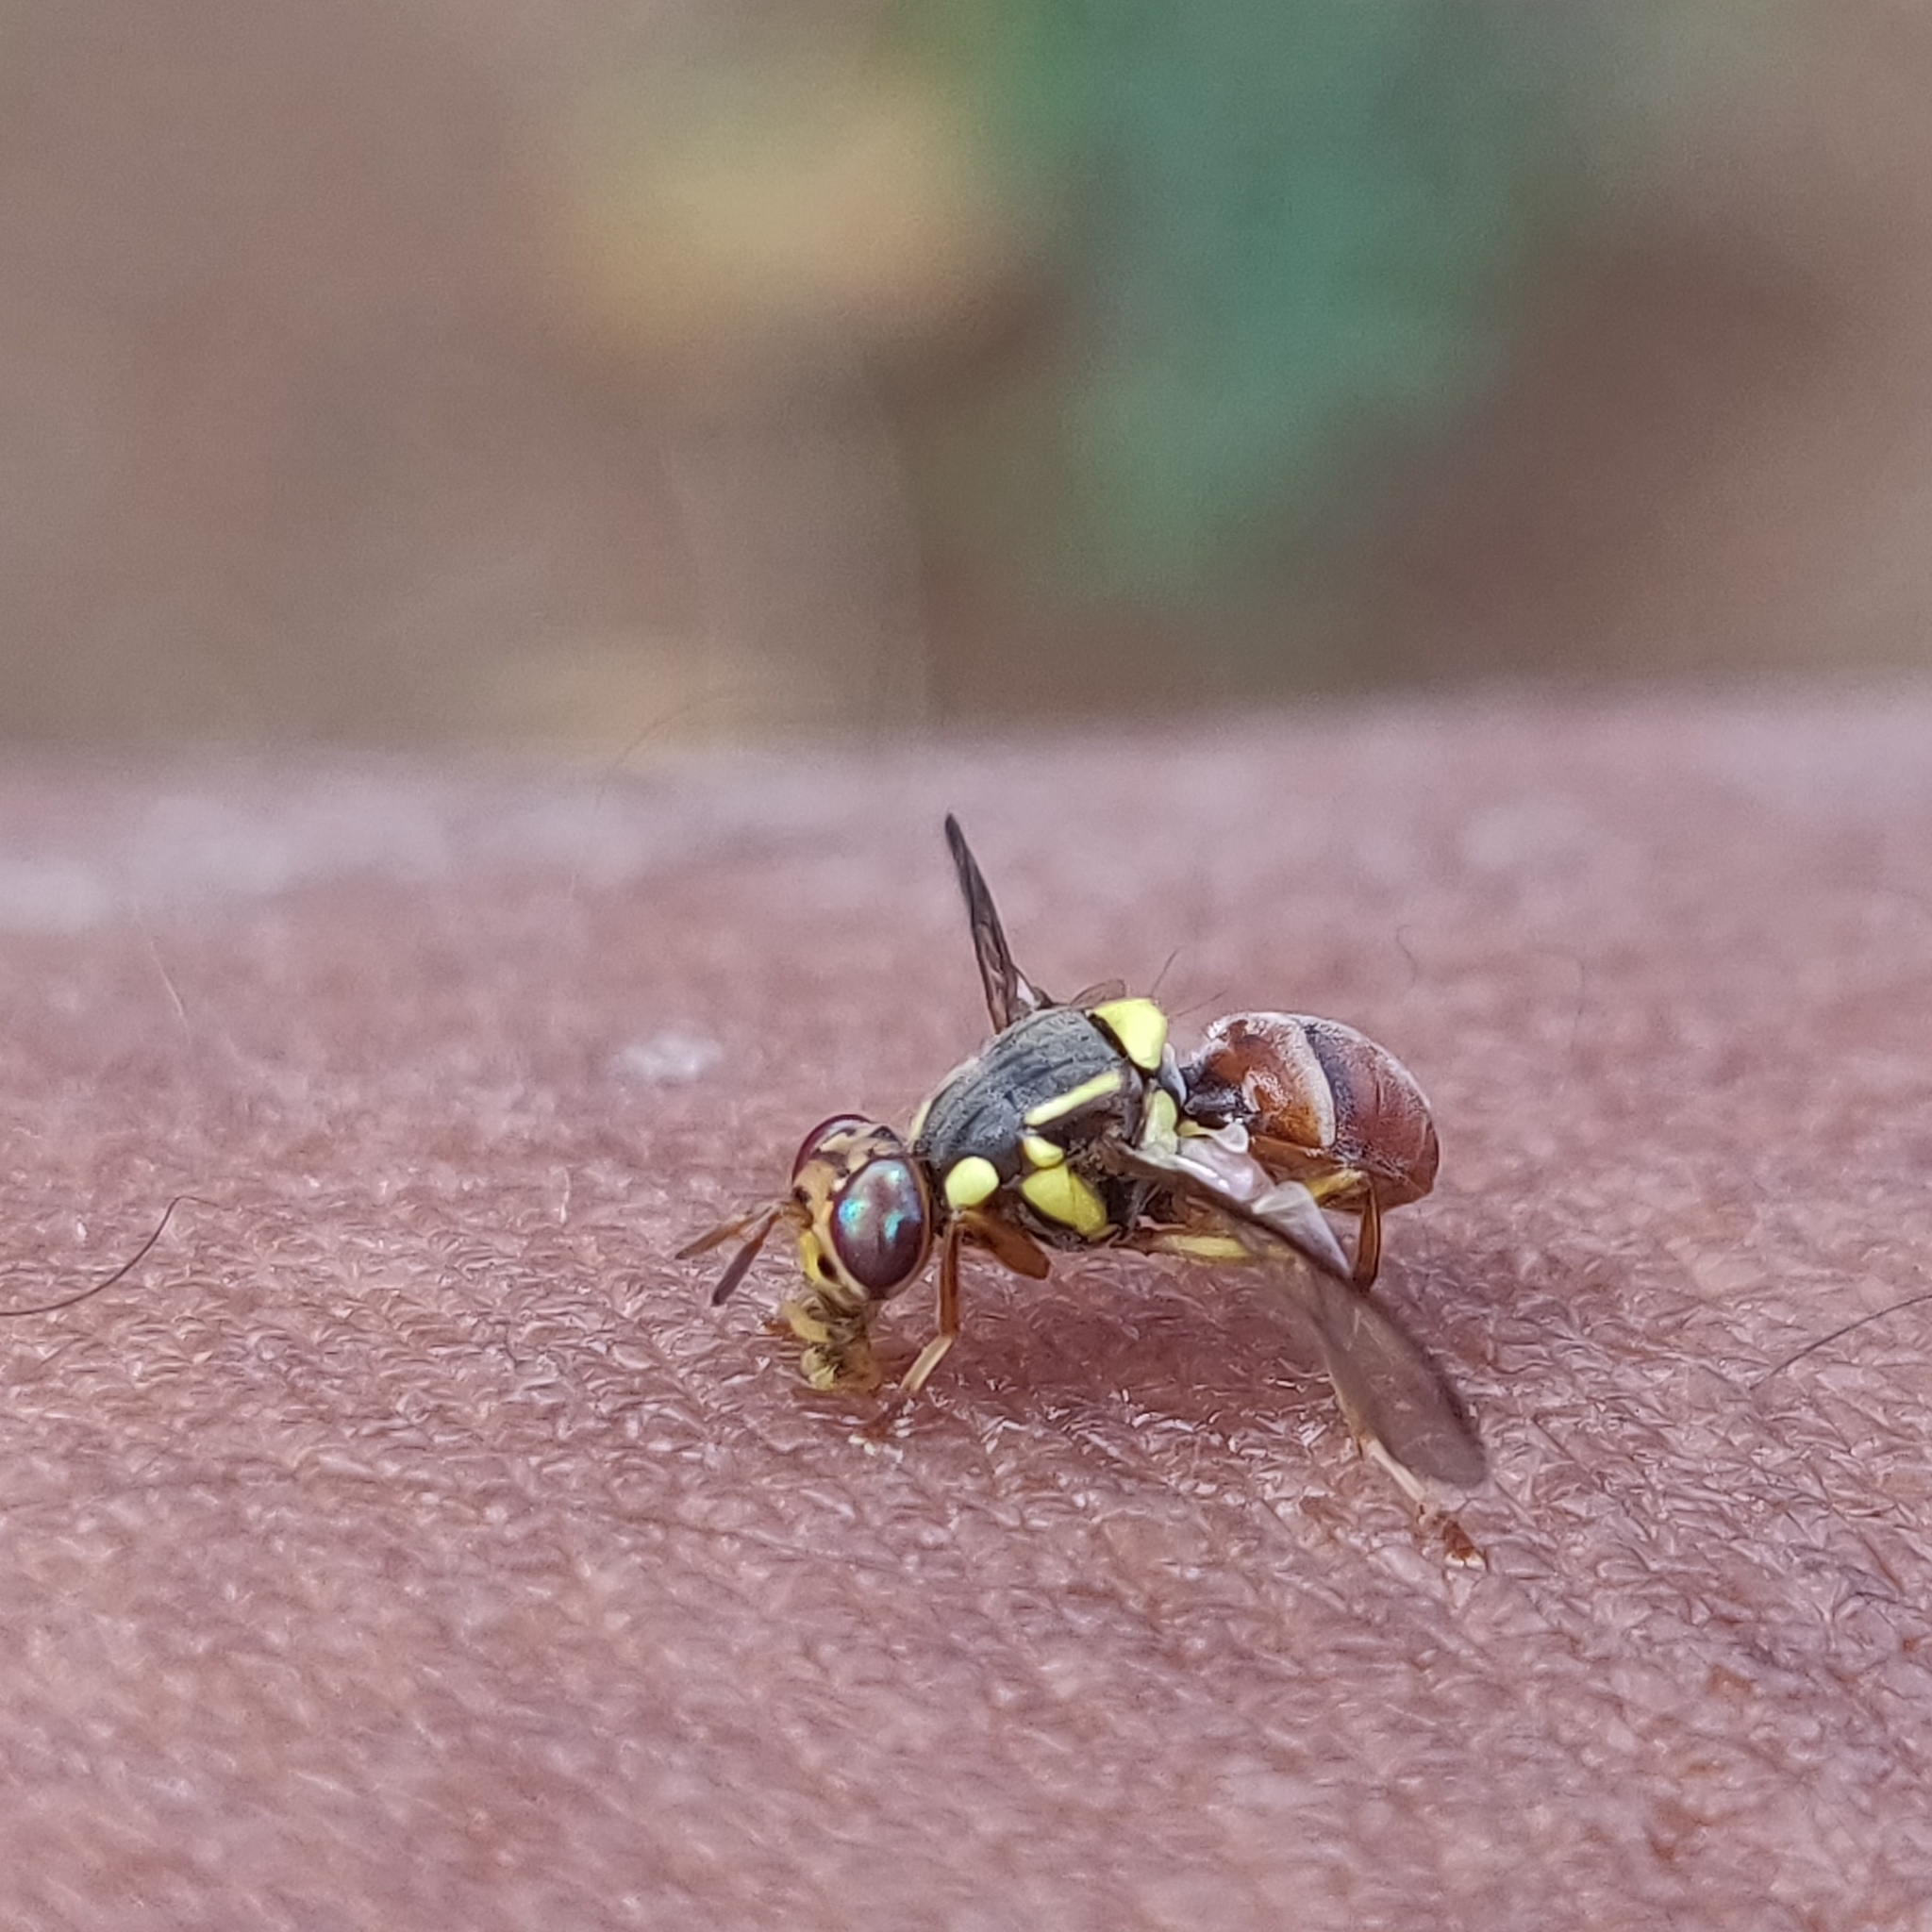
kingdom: Animalia
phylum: Arthropoda
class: Insecta
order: Diptera
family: Tephritidae
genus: Bactrocera
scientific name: Bactrocera dorsalis
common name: Oriental fruit fly
